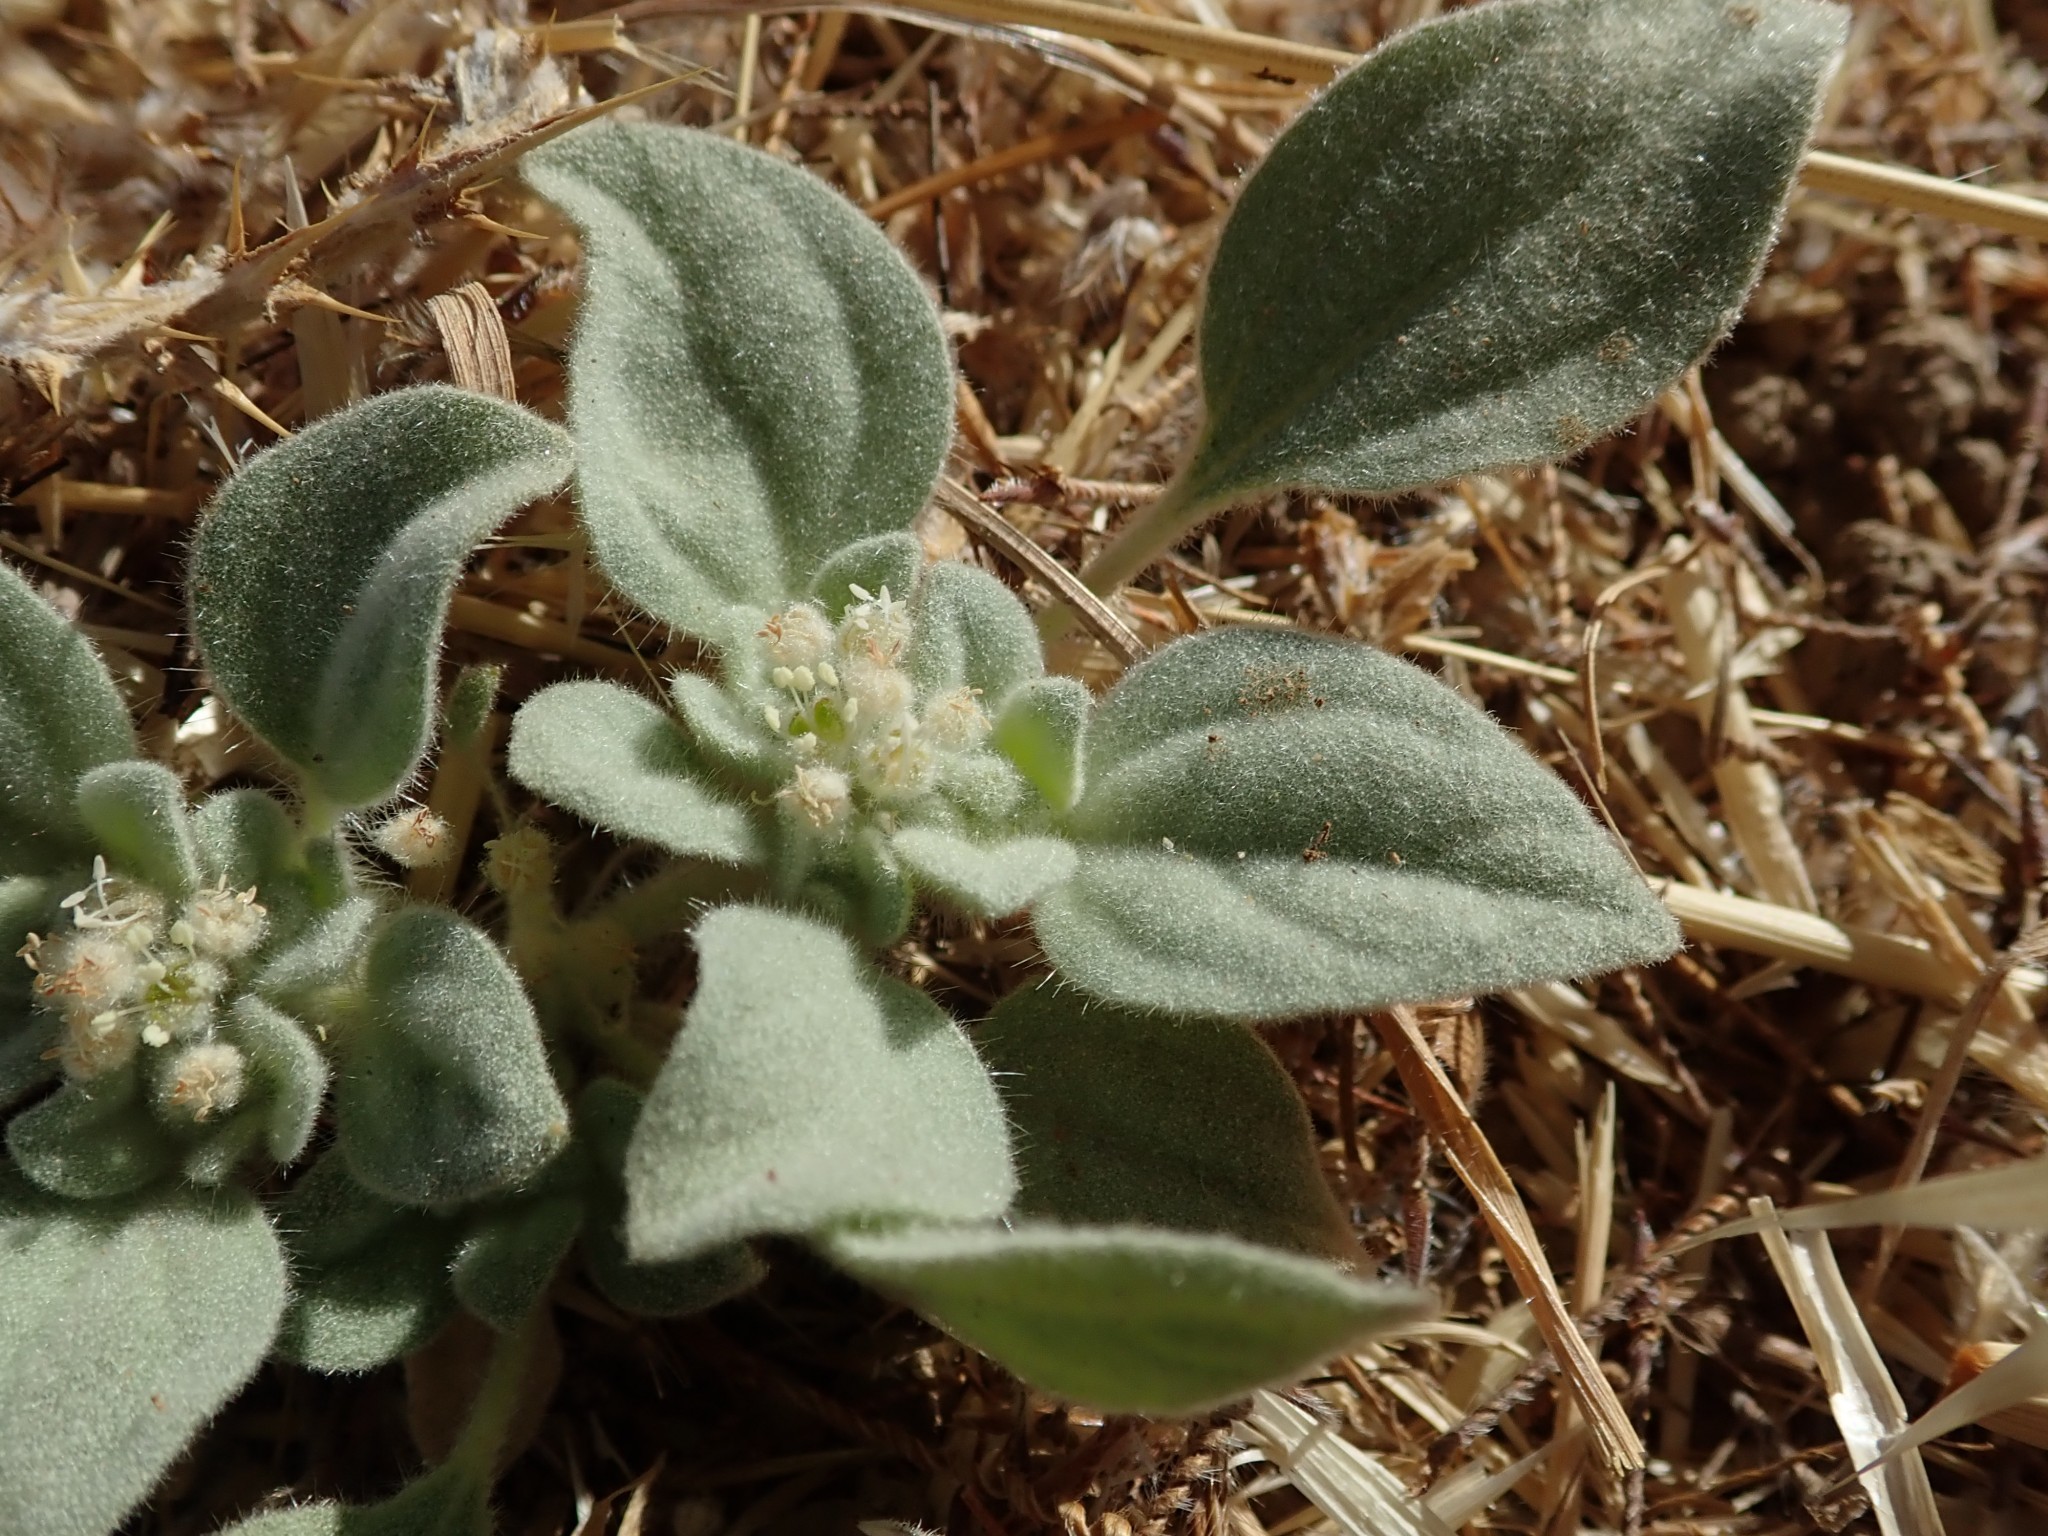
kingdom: Plantae
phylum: Tracheophyta
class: Magnoliopsida
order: Malpighiales
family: Euphorbiaceae
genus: Croton
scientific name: Croton setiger
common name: Dove weed
